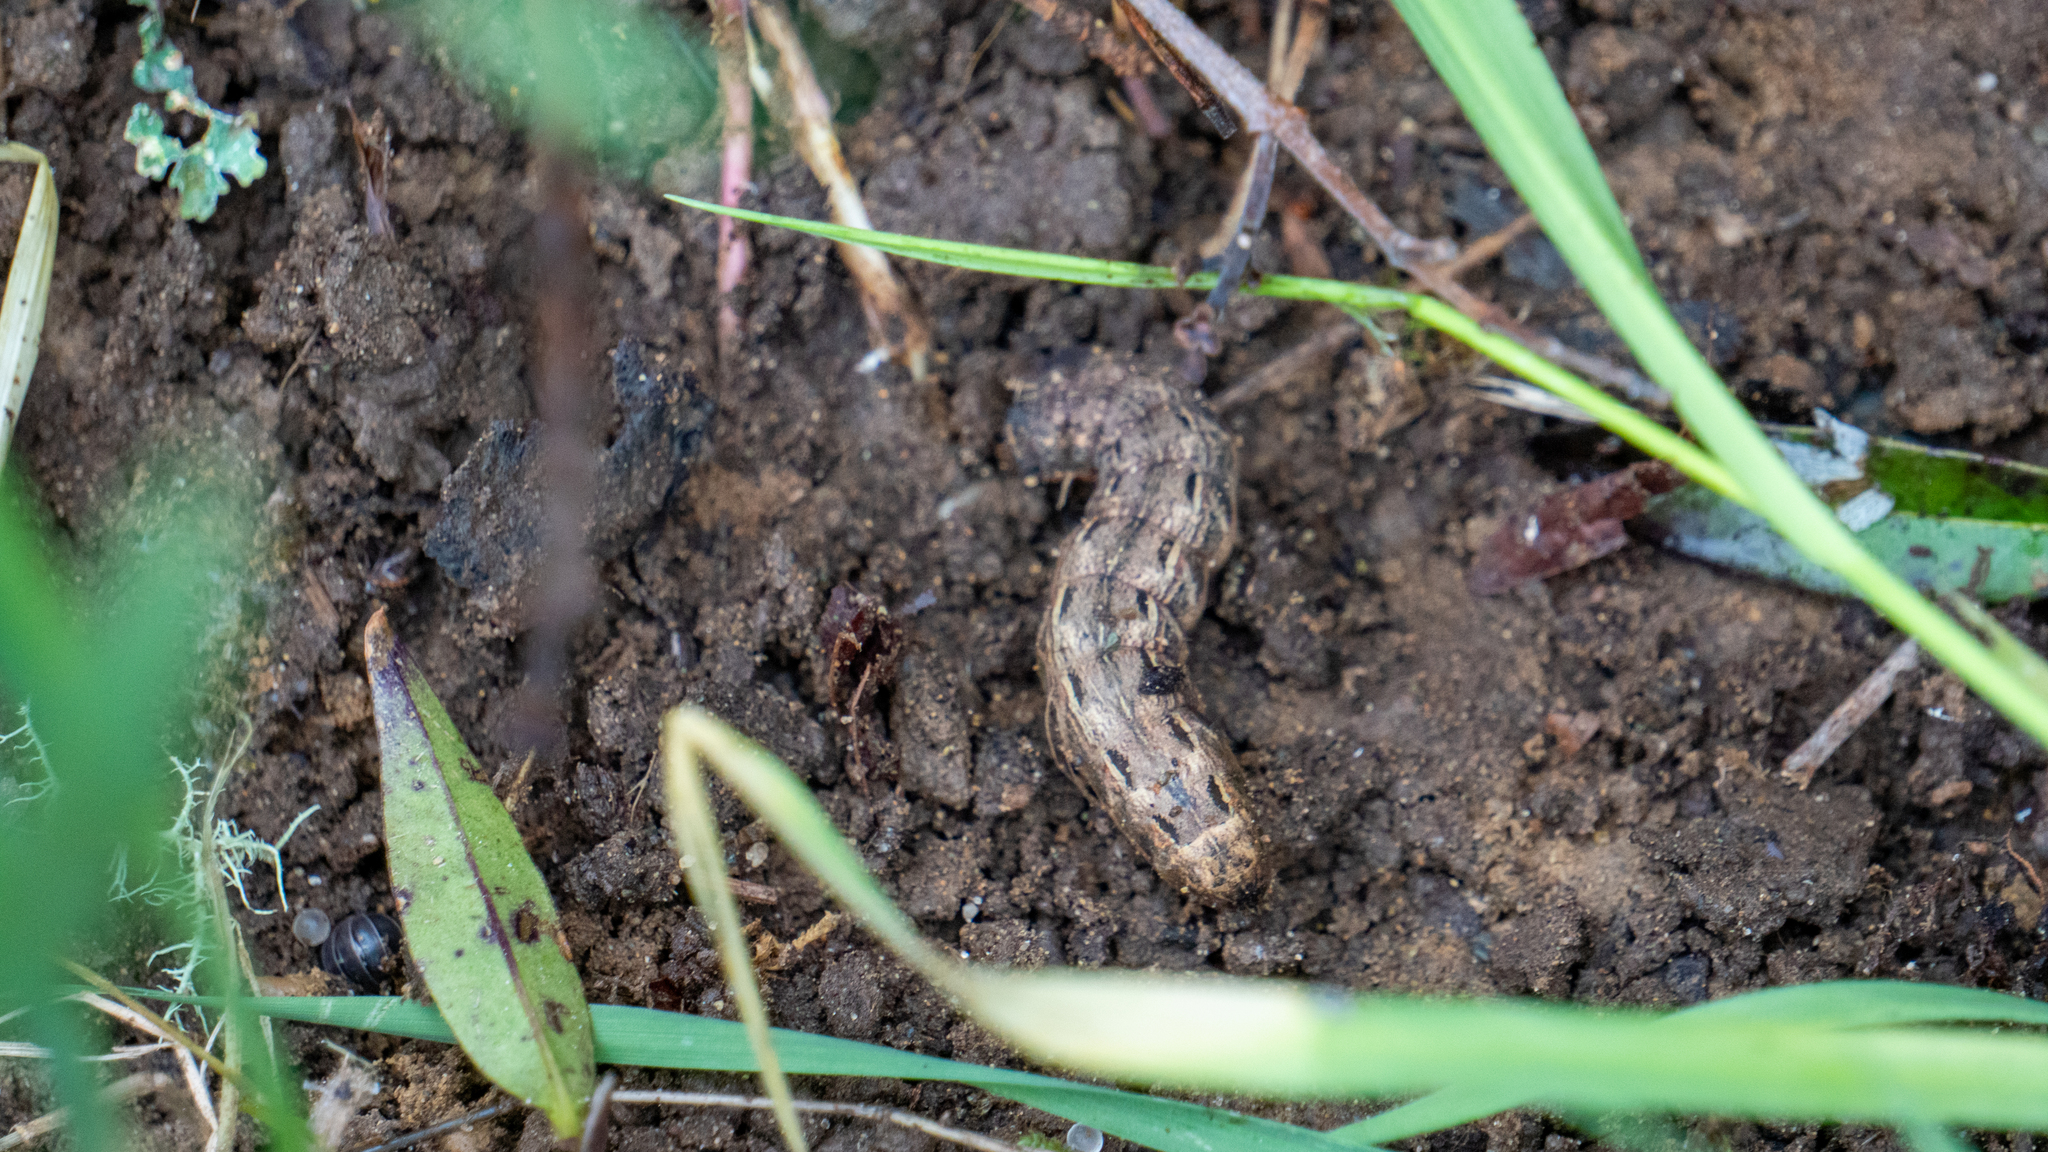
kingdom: Animalia
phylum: Arthropoda
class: Insecta
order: Lepidoptera
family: Noctuidae
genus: Noctua
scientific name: Noctua pronuba
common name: Large yellow underwing
